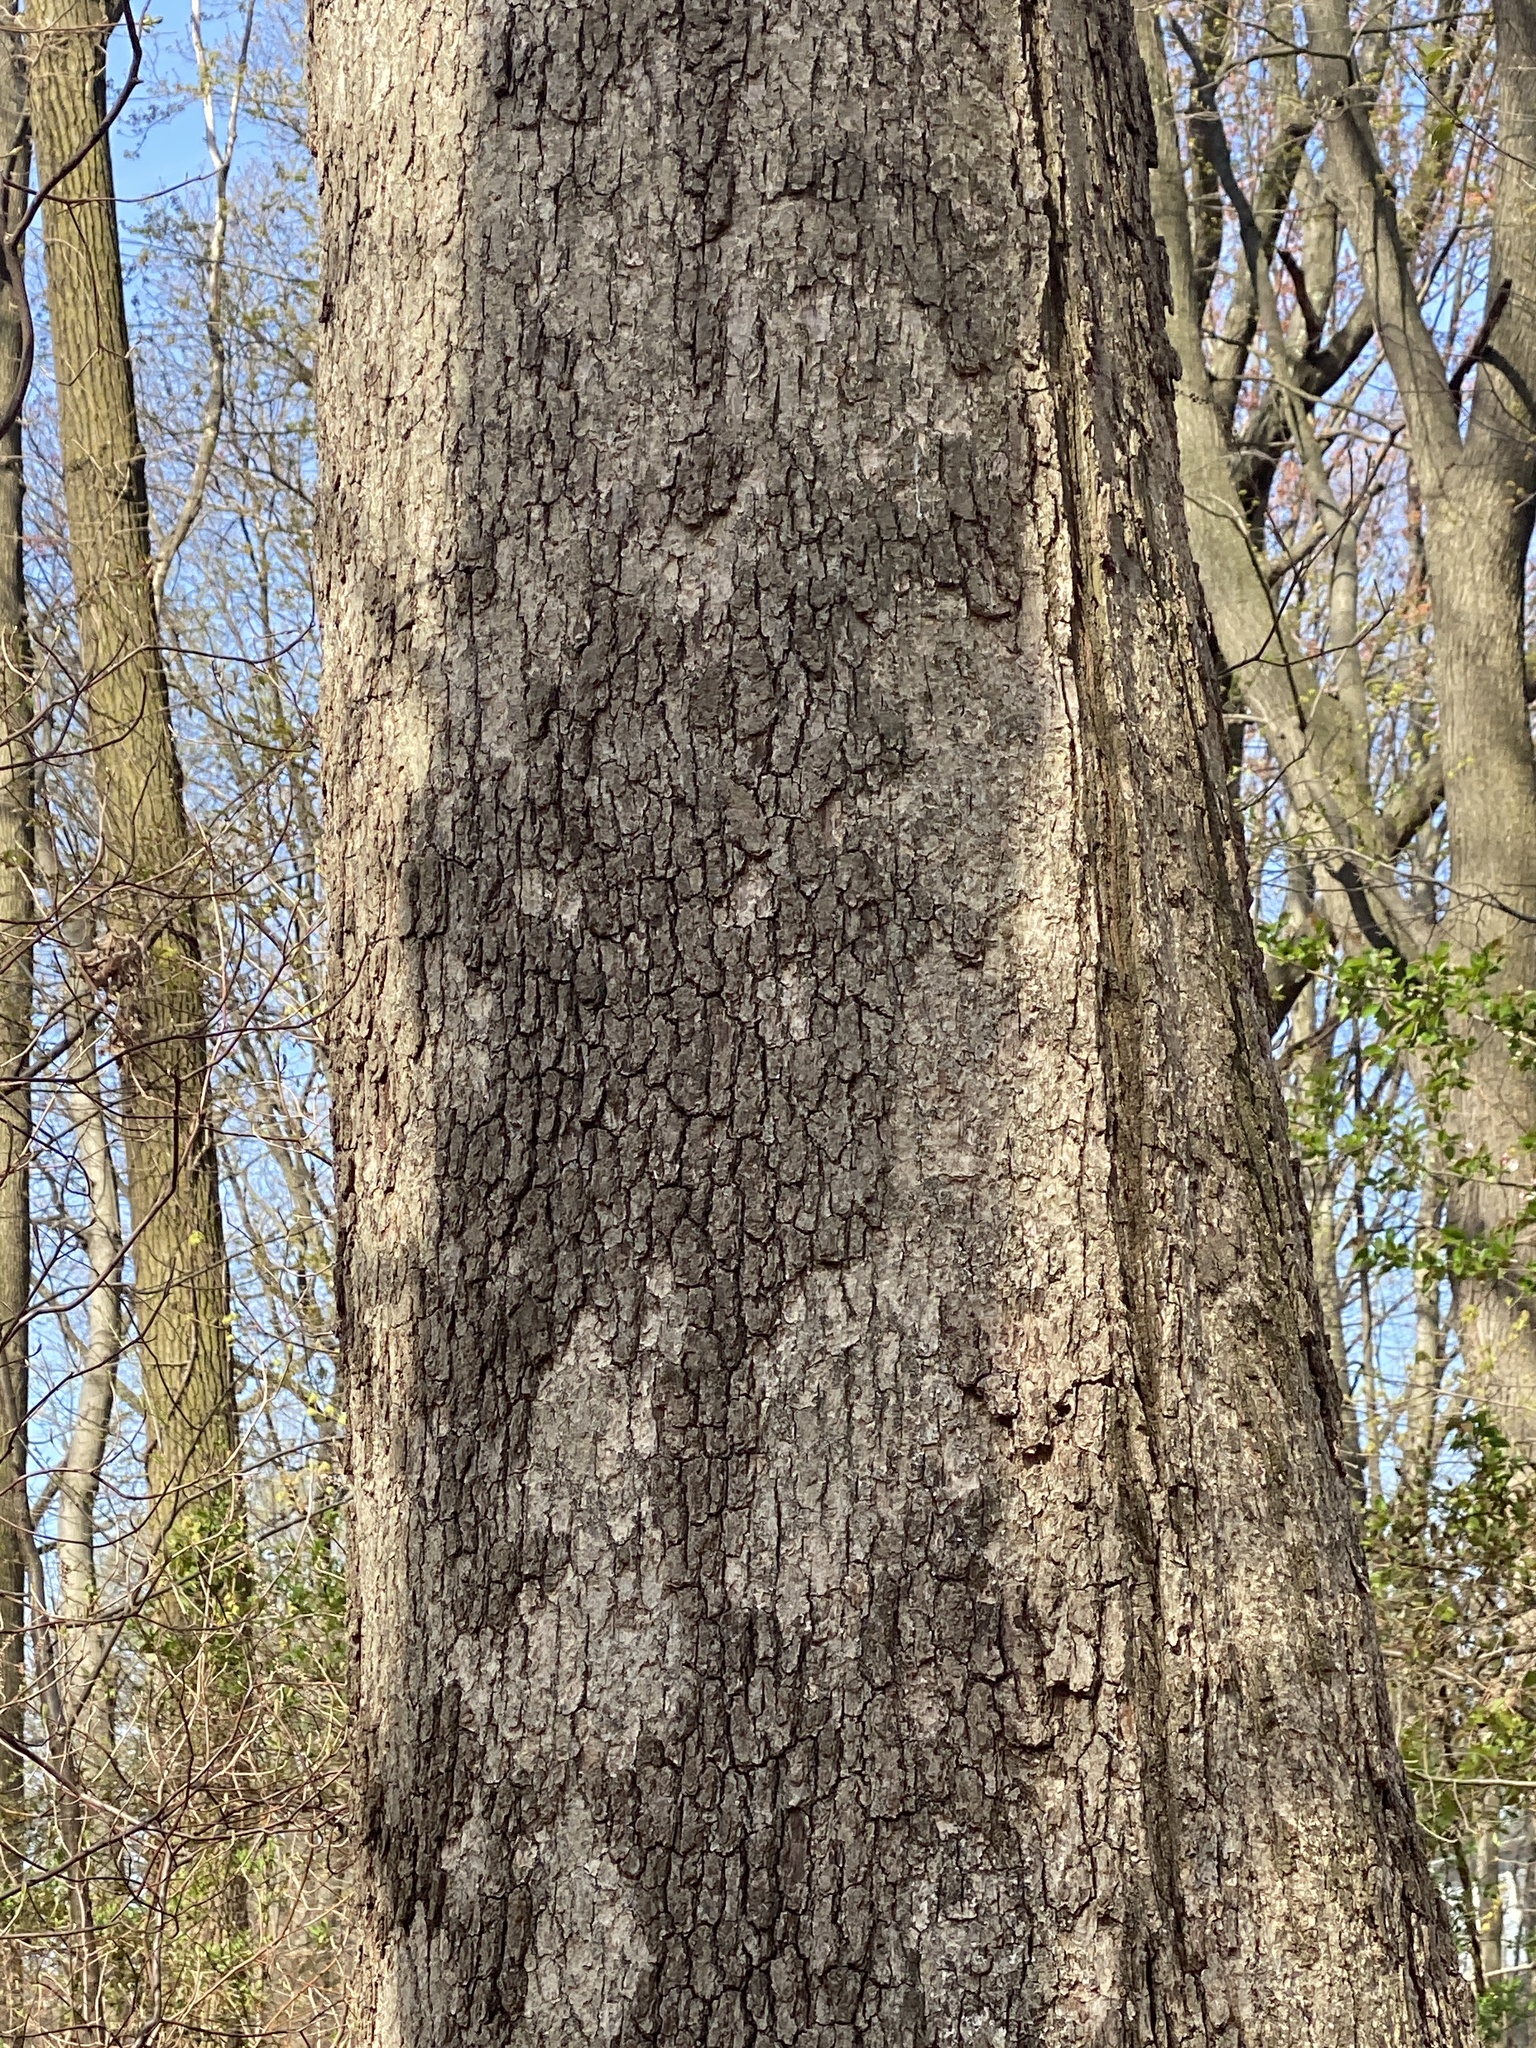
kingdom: Fungi
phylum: Basidiomycota
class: Agaricomycetes
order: Russulales
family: Stereaceae
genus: Acanthophysium
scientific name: Acanthophysium oakesii
